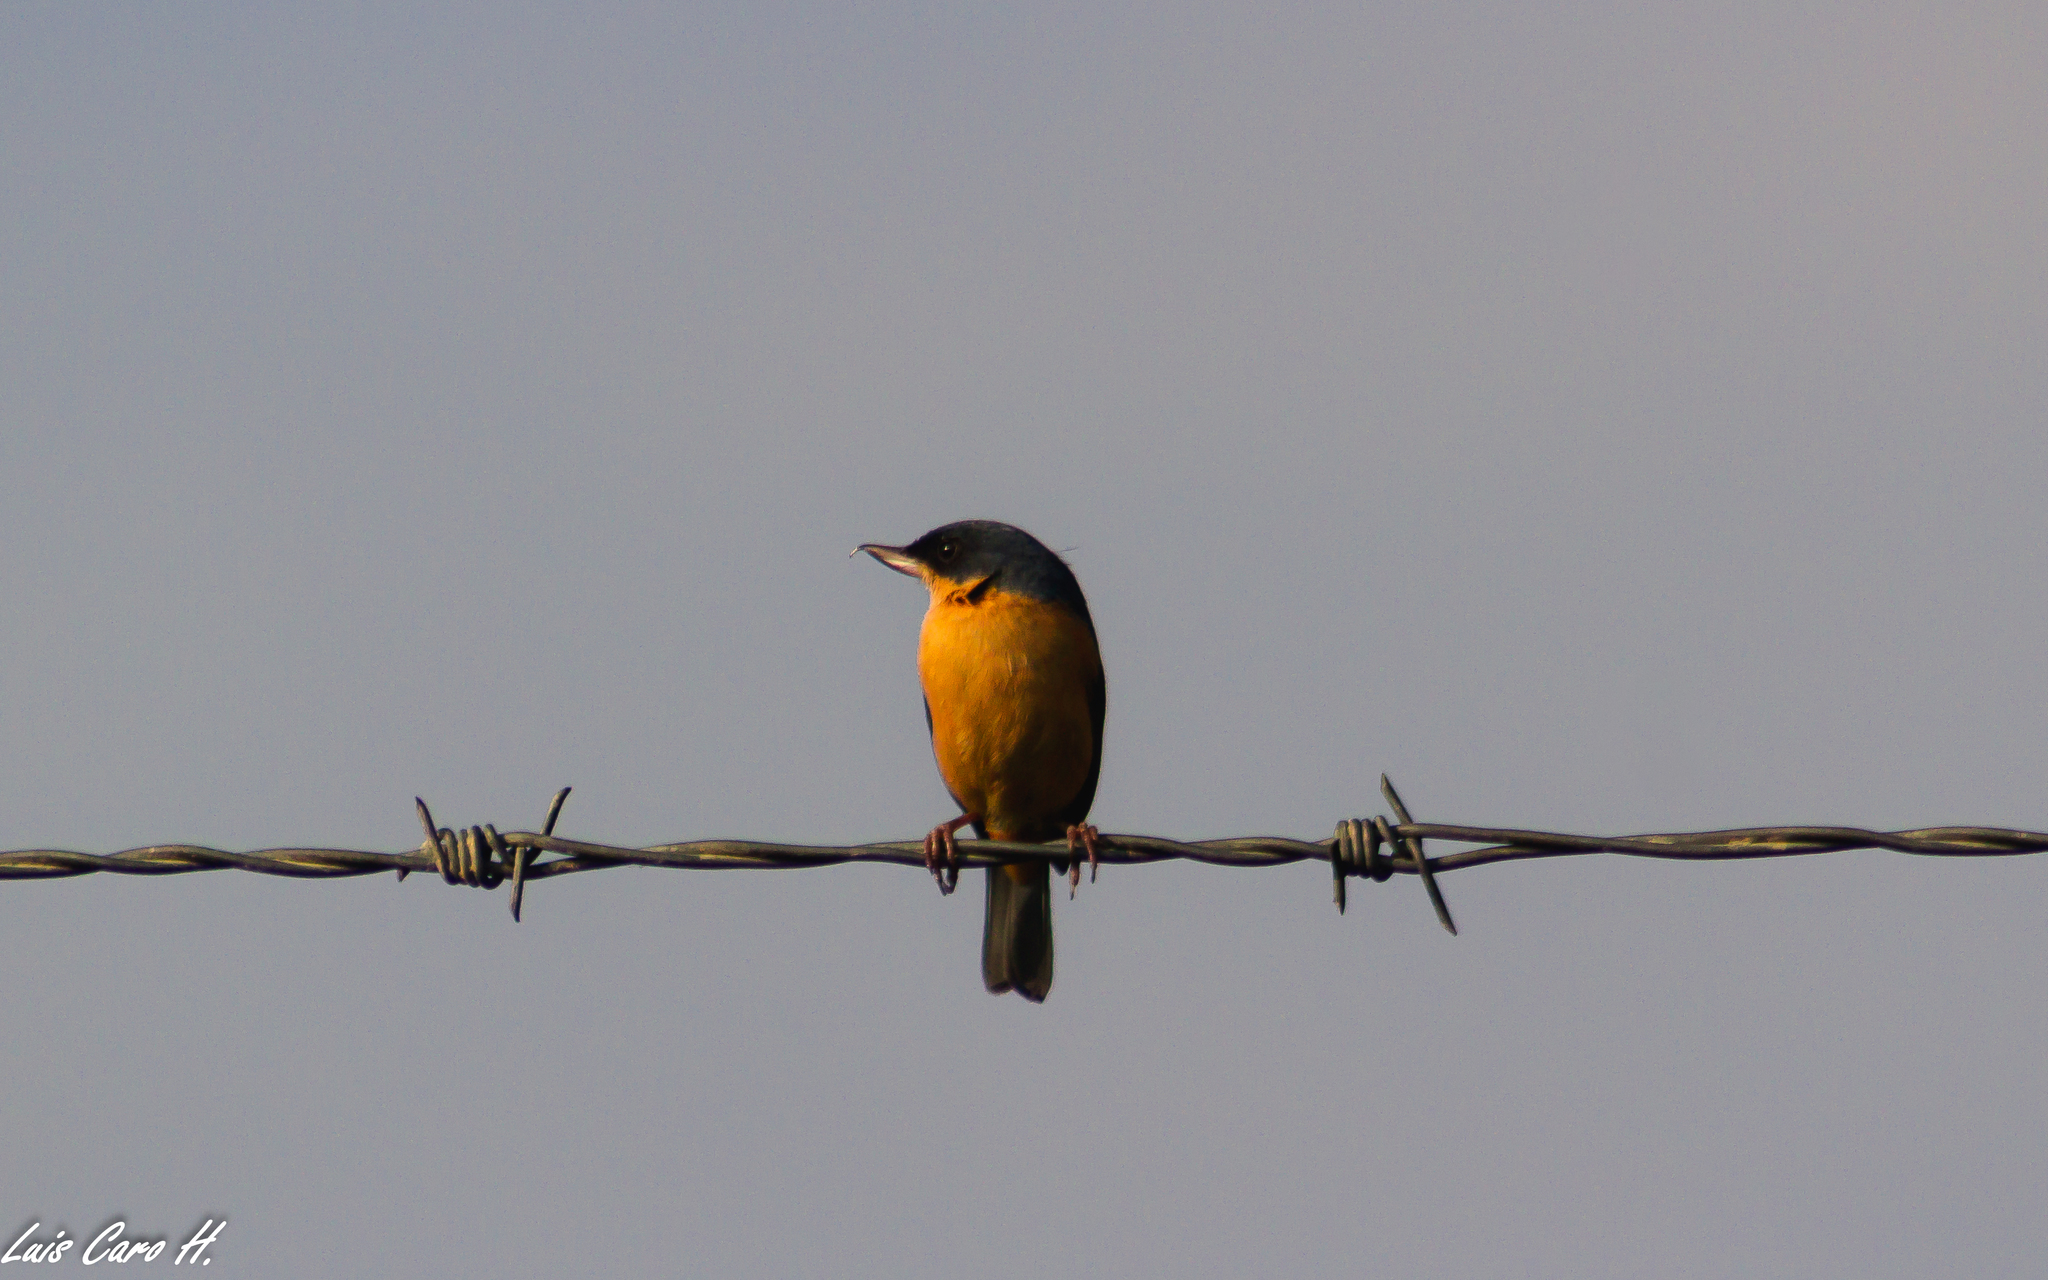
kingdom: Animalia
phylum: Chordata
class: Aves
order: Passeriformes
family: Thraupidae
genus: Diglossa
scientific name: Diglossa sittoides
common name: Rusty flowerpiercer
